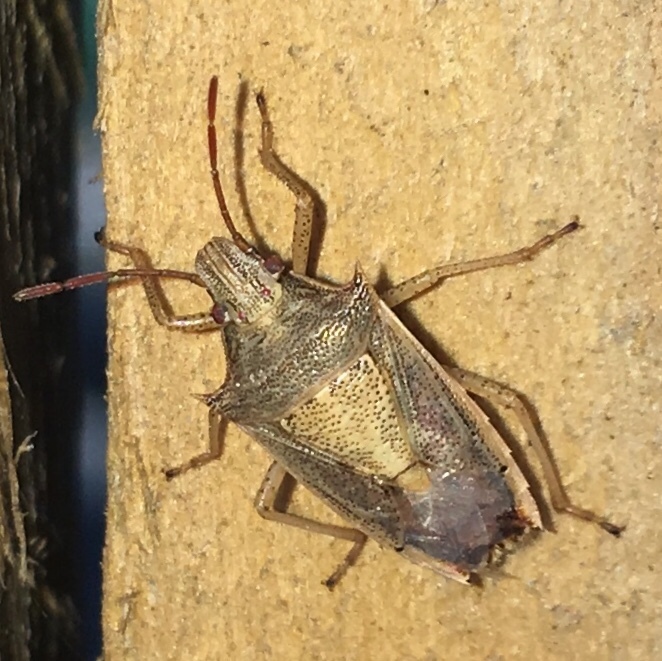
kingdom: Animalia
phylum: Arthropoda
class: Insecta
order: Hemiptera
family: Pentatomidae
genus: Oebalus
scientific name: Oebalus pugnax
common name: Rice stink bug
